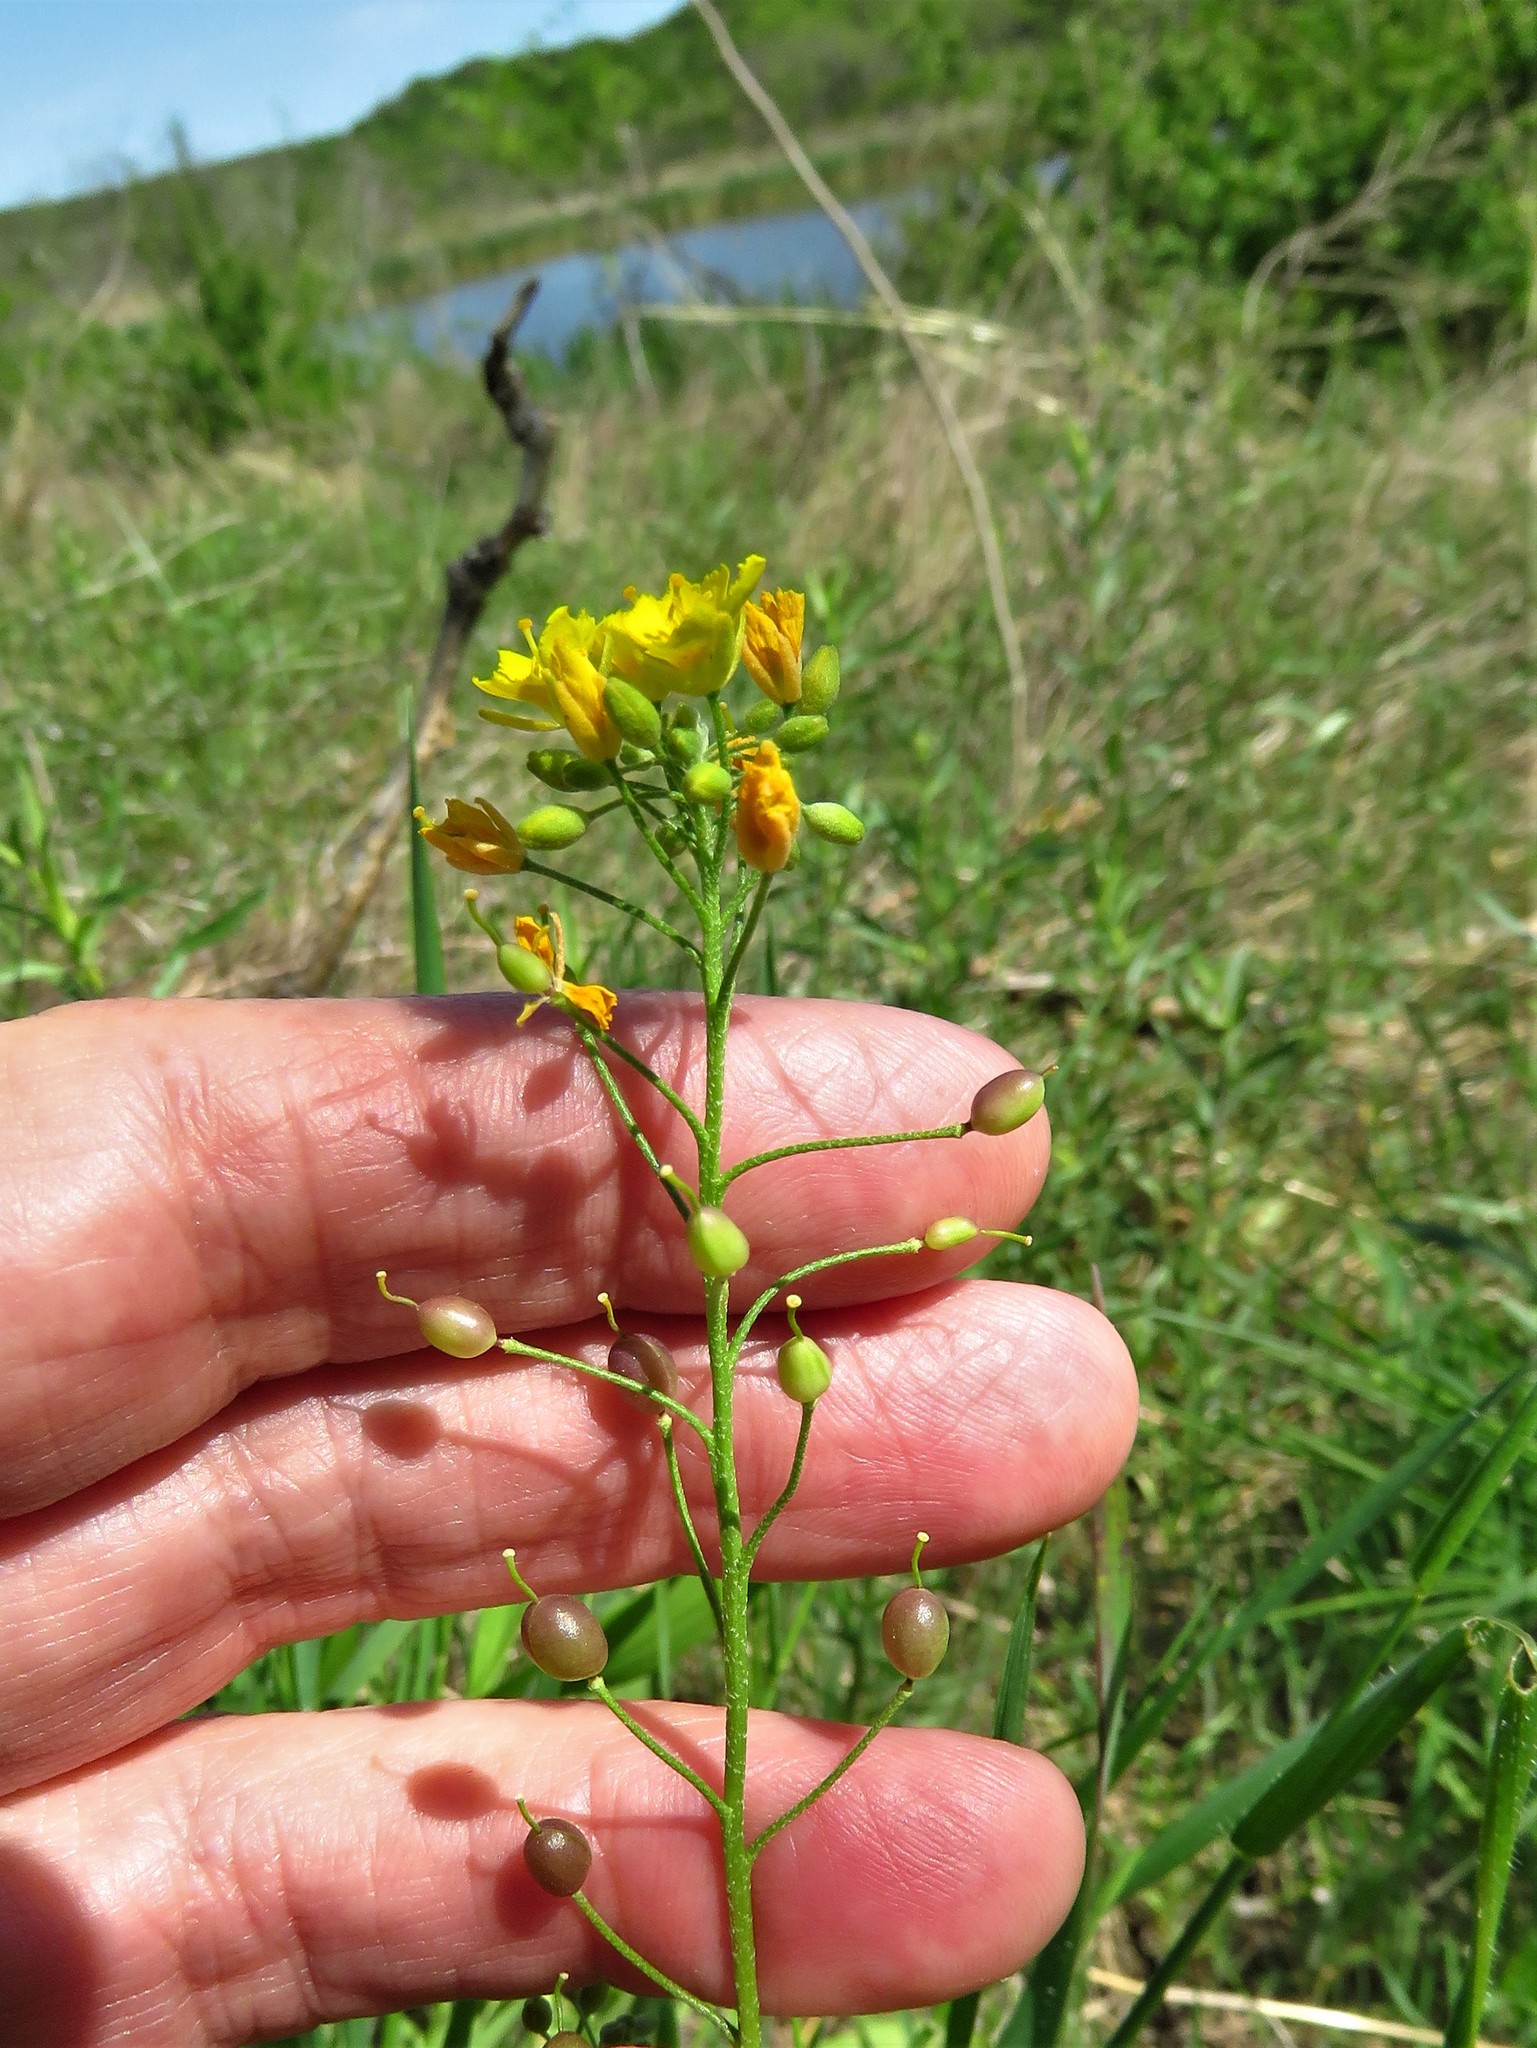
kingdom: Plantae
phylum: Tracheophyta
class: Magnoliopsida
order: Brassicales
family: Brassicaceae
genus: Physaria
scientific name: Physaria gracilis
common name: Spreading bladderpod
